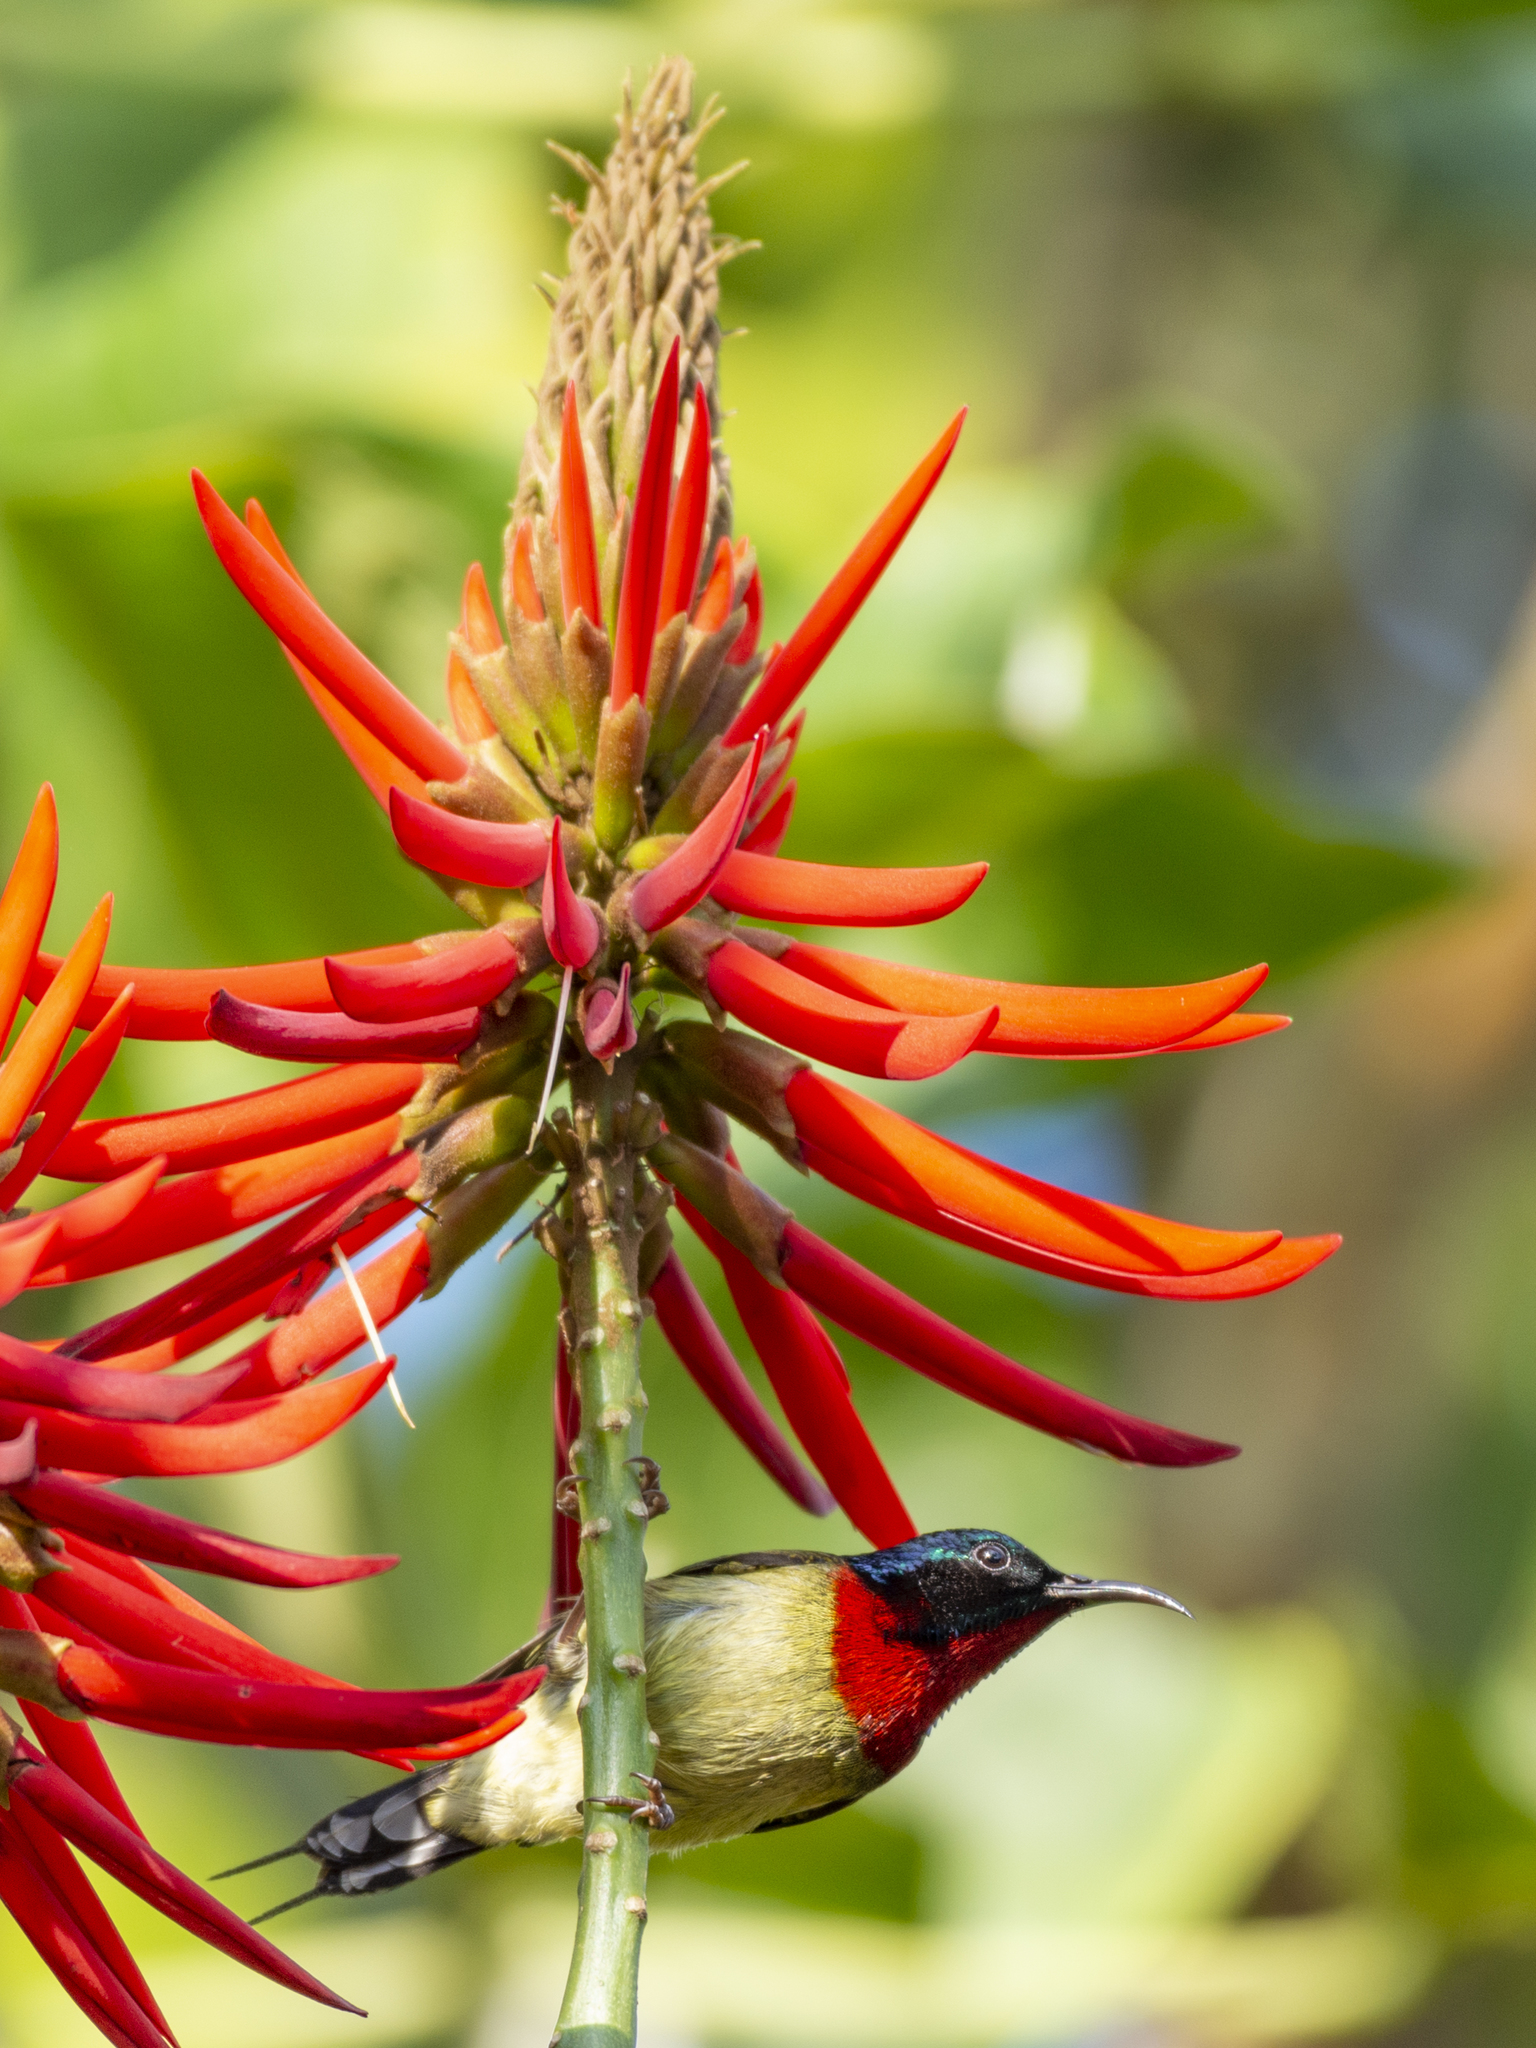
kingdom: Animalia
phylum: Chordata
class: Aves
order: Passeriformes
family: Nectariniidae
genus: Aethopyga
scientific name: Aethopyga christinae
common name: Fork-tailed sunbird
